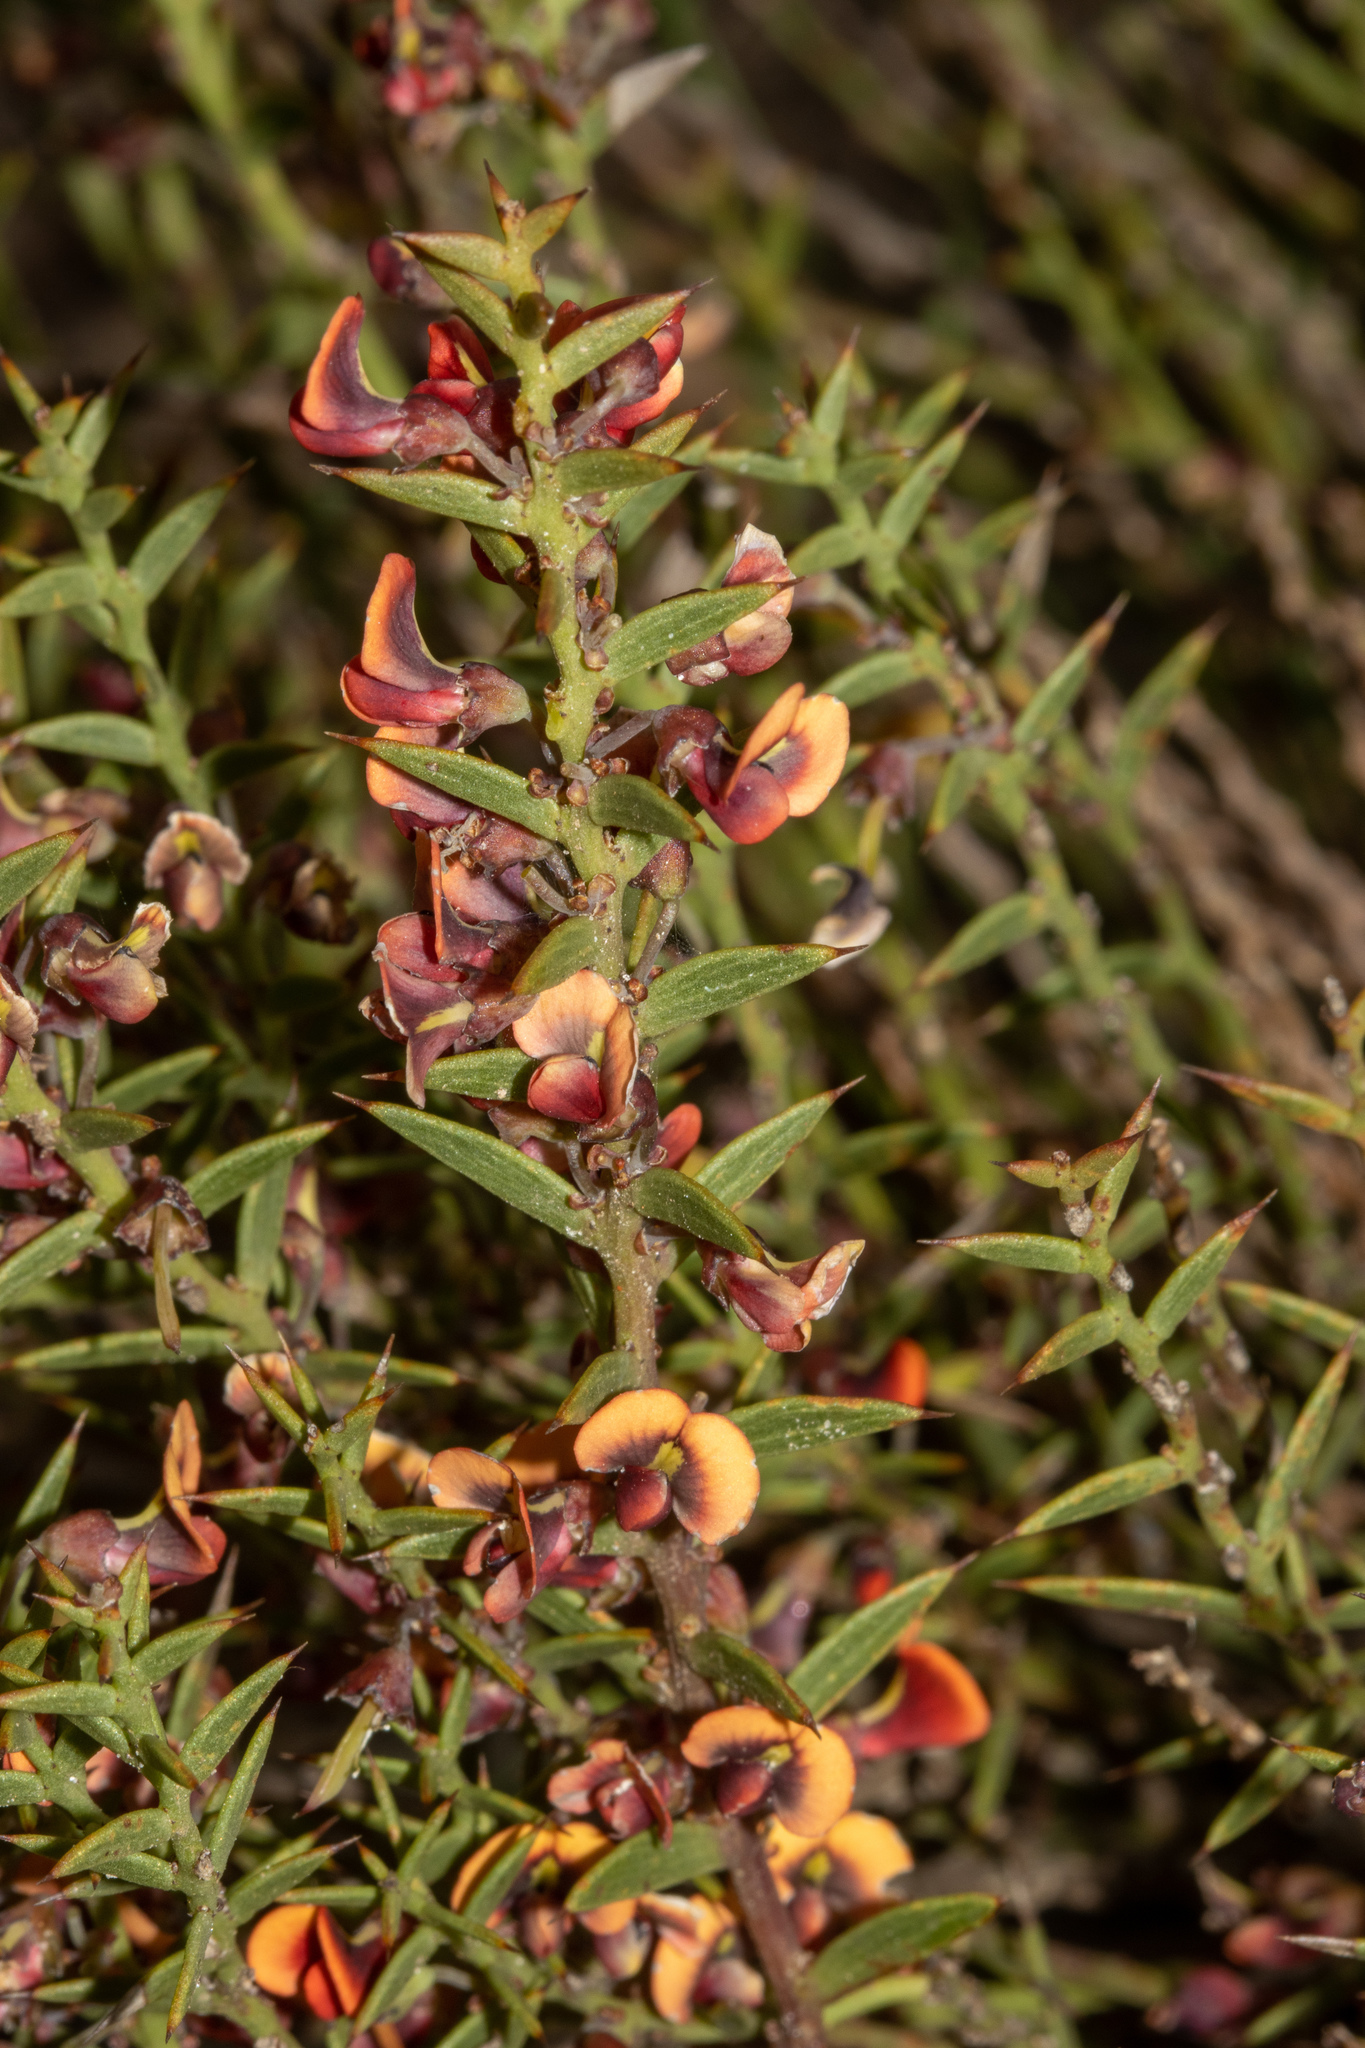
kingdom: Plantae
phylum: Tracheophyta
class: Magnoliopsida
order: Fabales
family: Fabaceae
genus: Daviesia
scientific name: Daviesia ulicifolia
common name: Gorse bitter-pea
